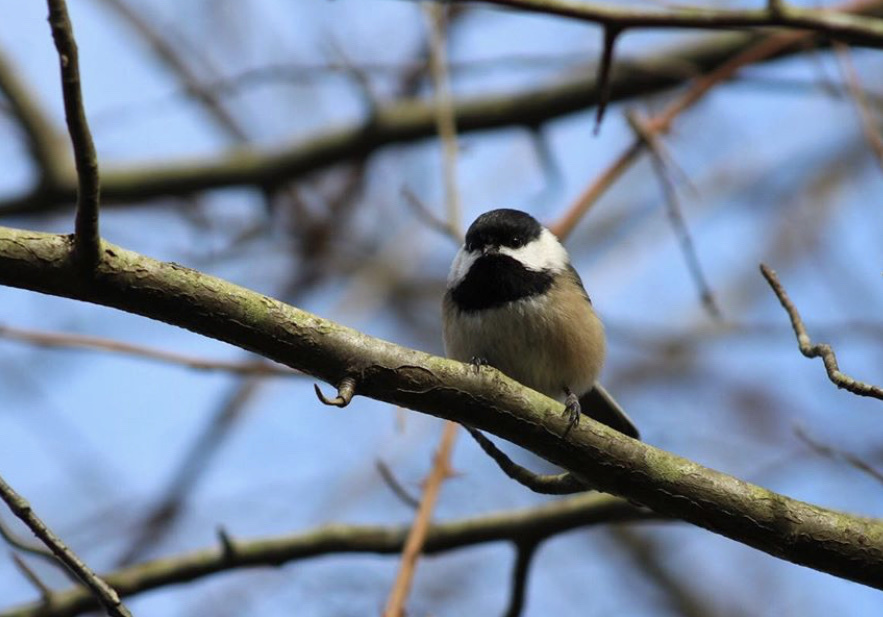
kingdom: Animalia
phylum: Chordata
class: Aves
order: Passeriformes
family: Paridae
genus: Poecile
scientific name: Poecile atricapillus
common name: Black-capped chickadee
